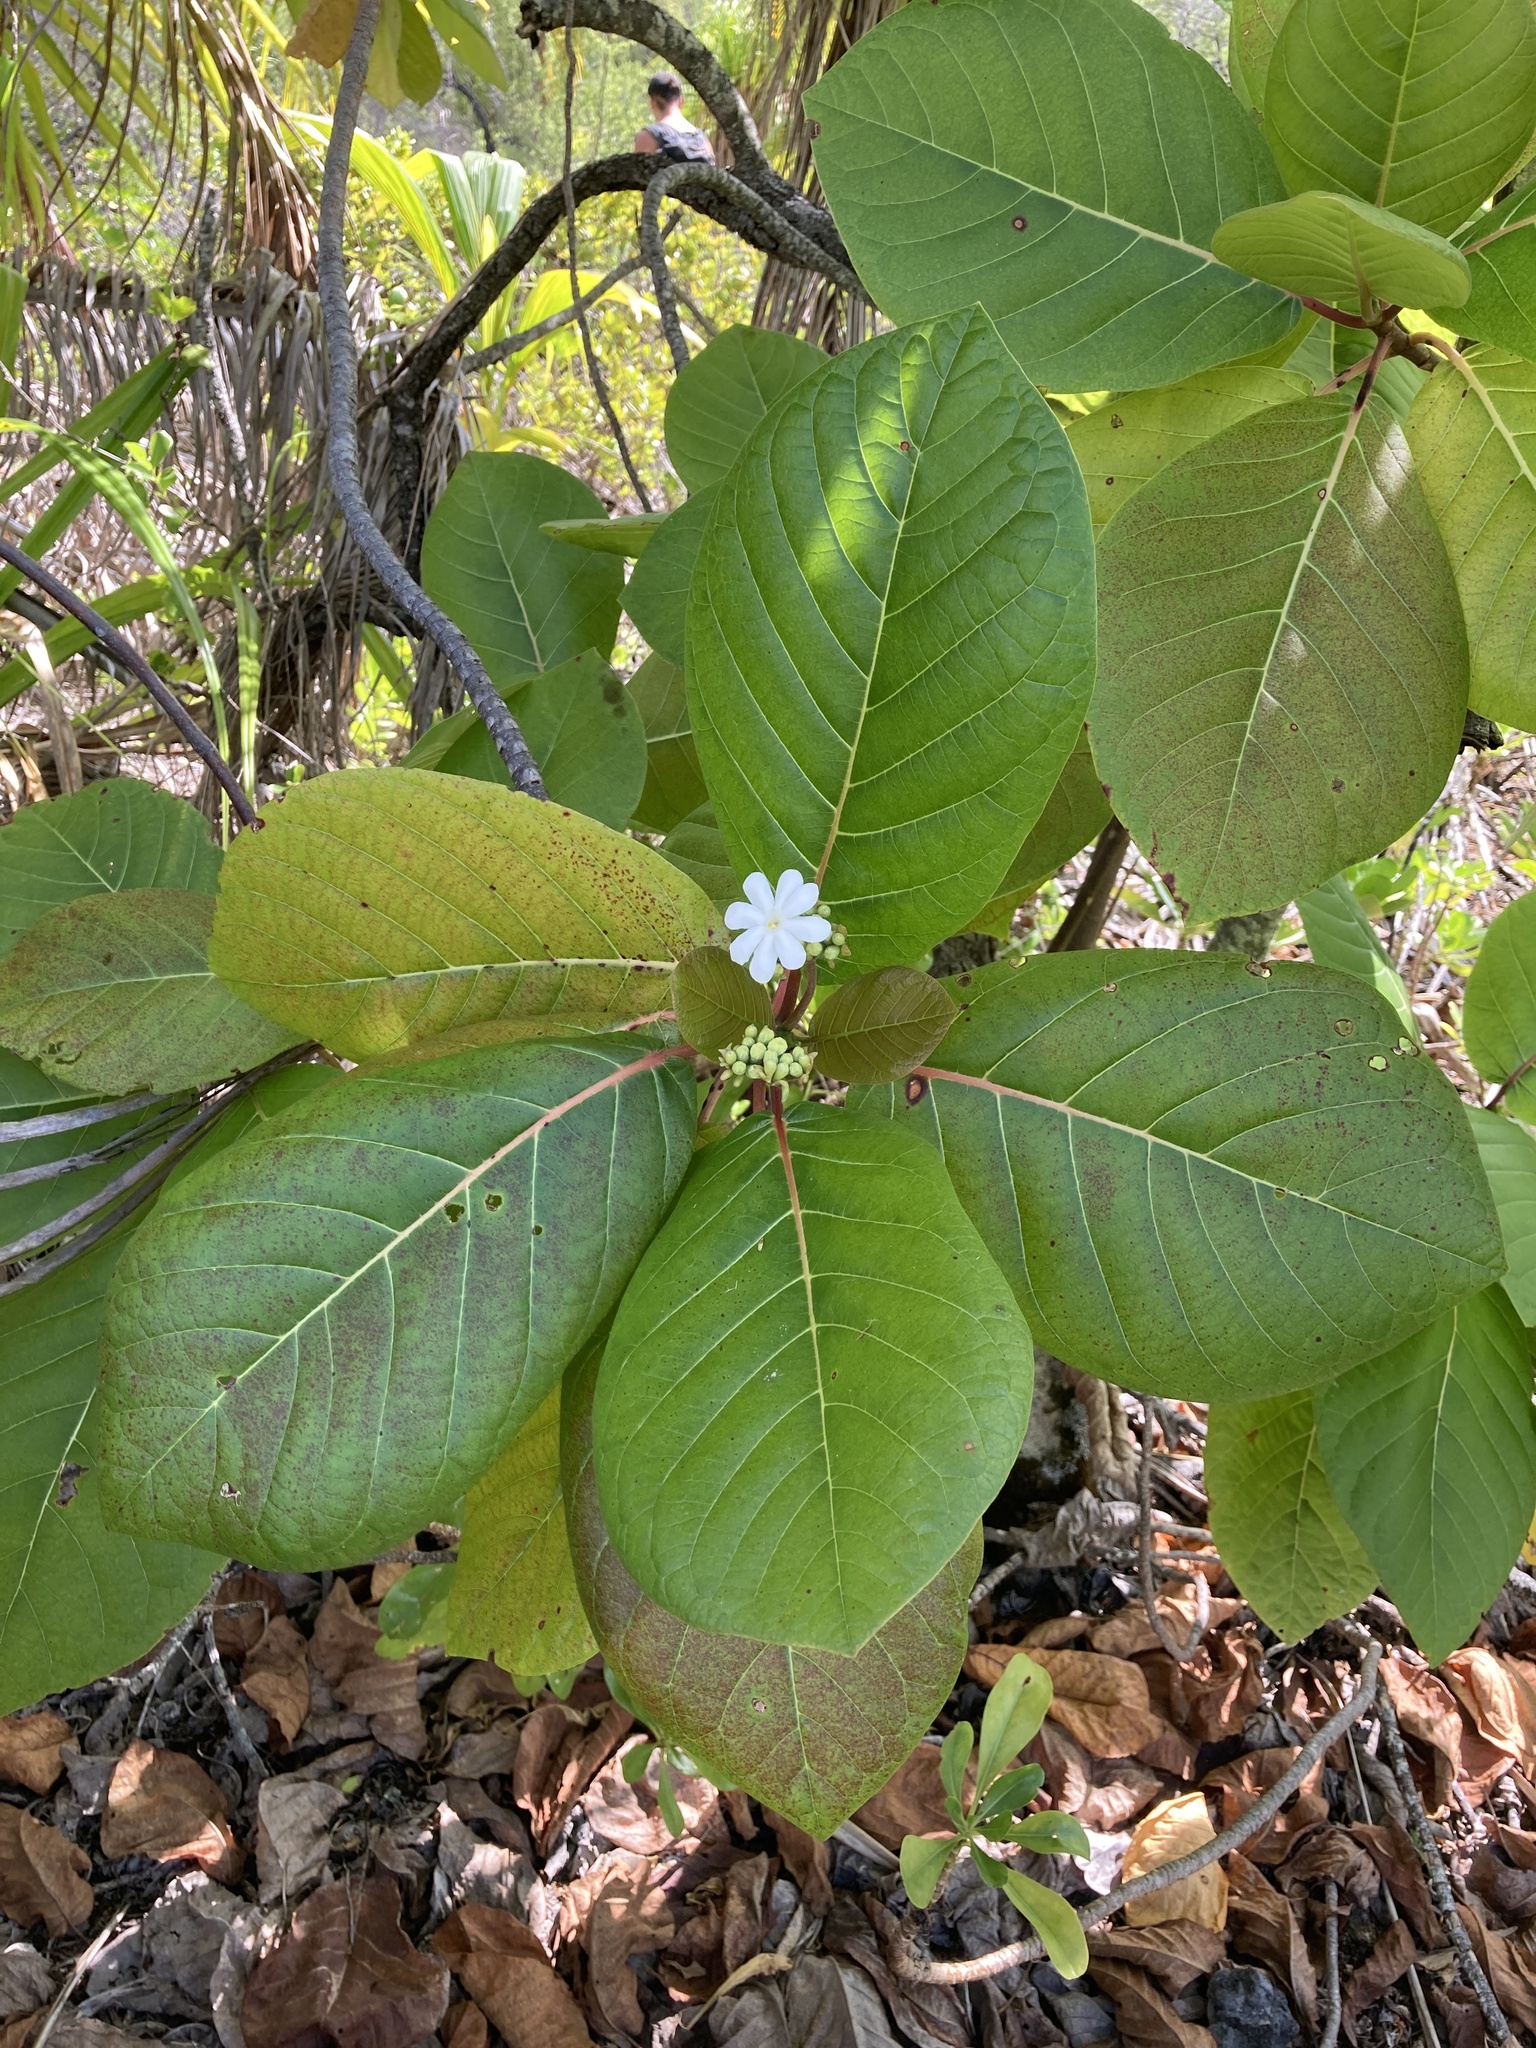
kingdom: Plantae
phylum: Tracheophyta
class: Magnoliopsida
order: Gentianales
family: Rubiaceae
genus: Guettarda
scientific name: Guettarda speciosa
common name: Sea randa
